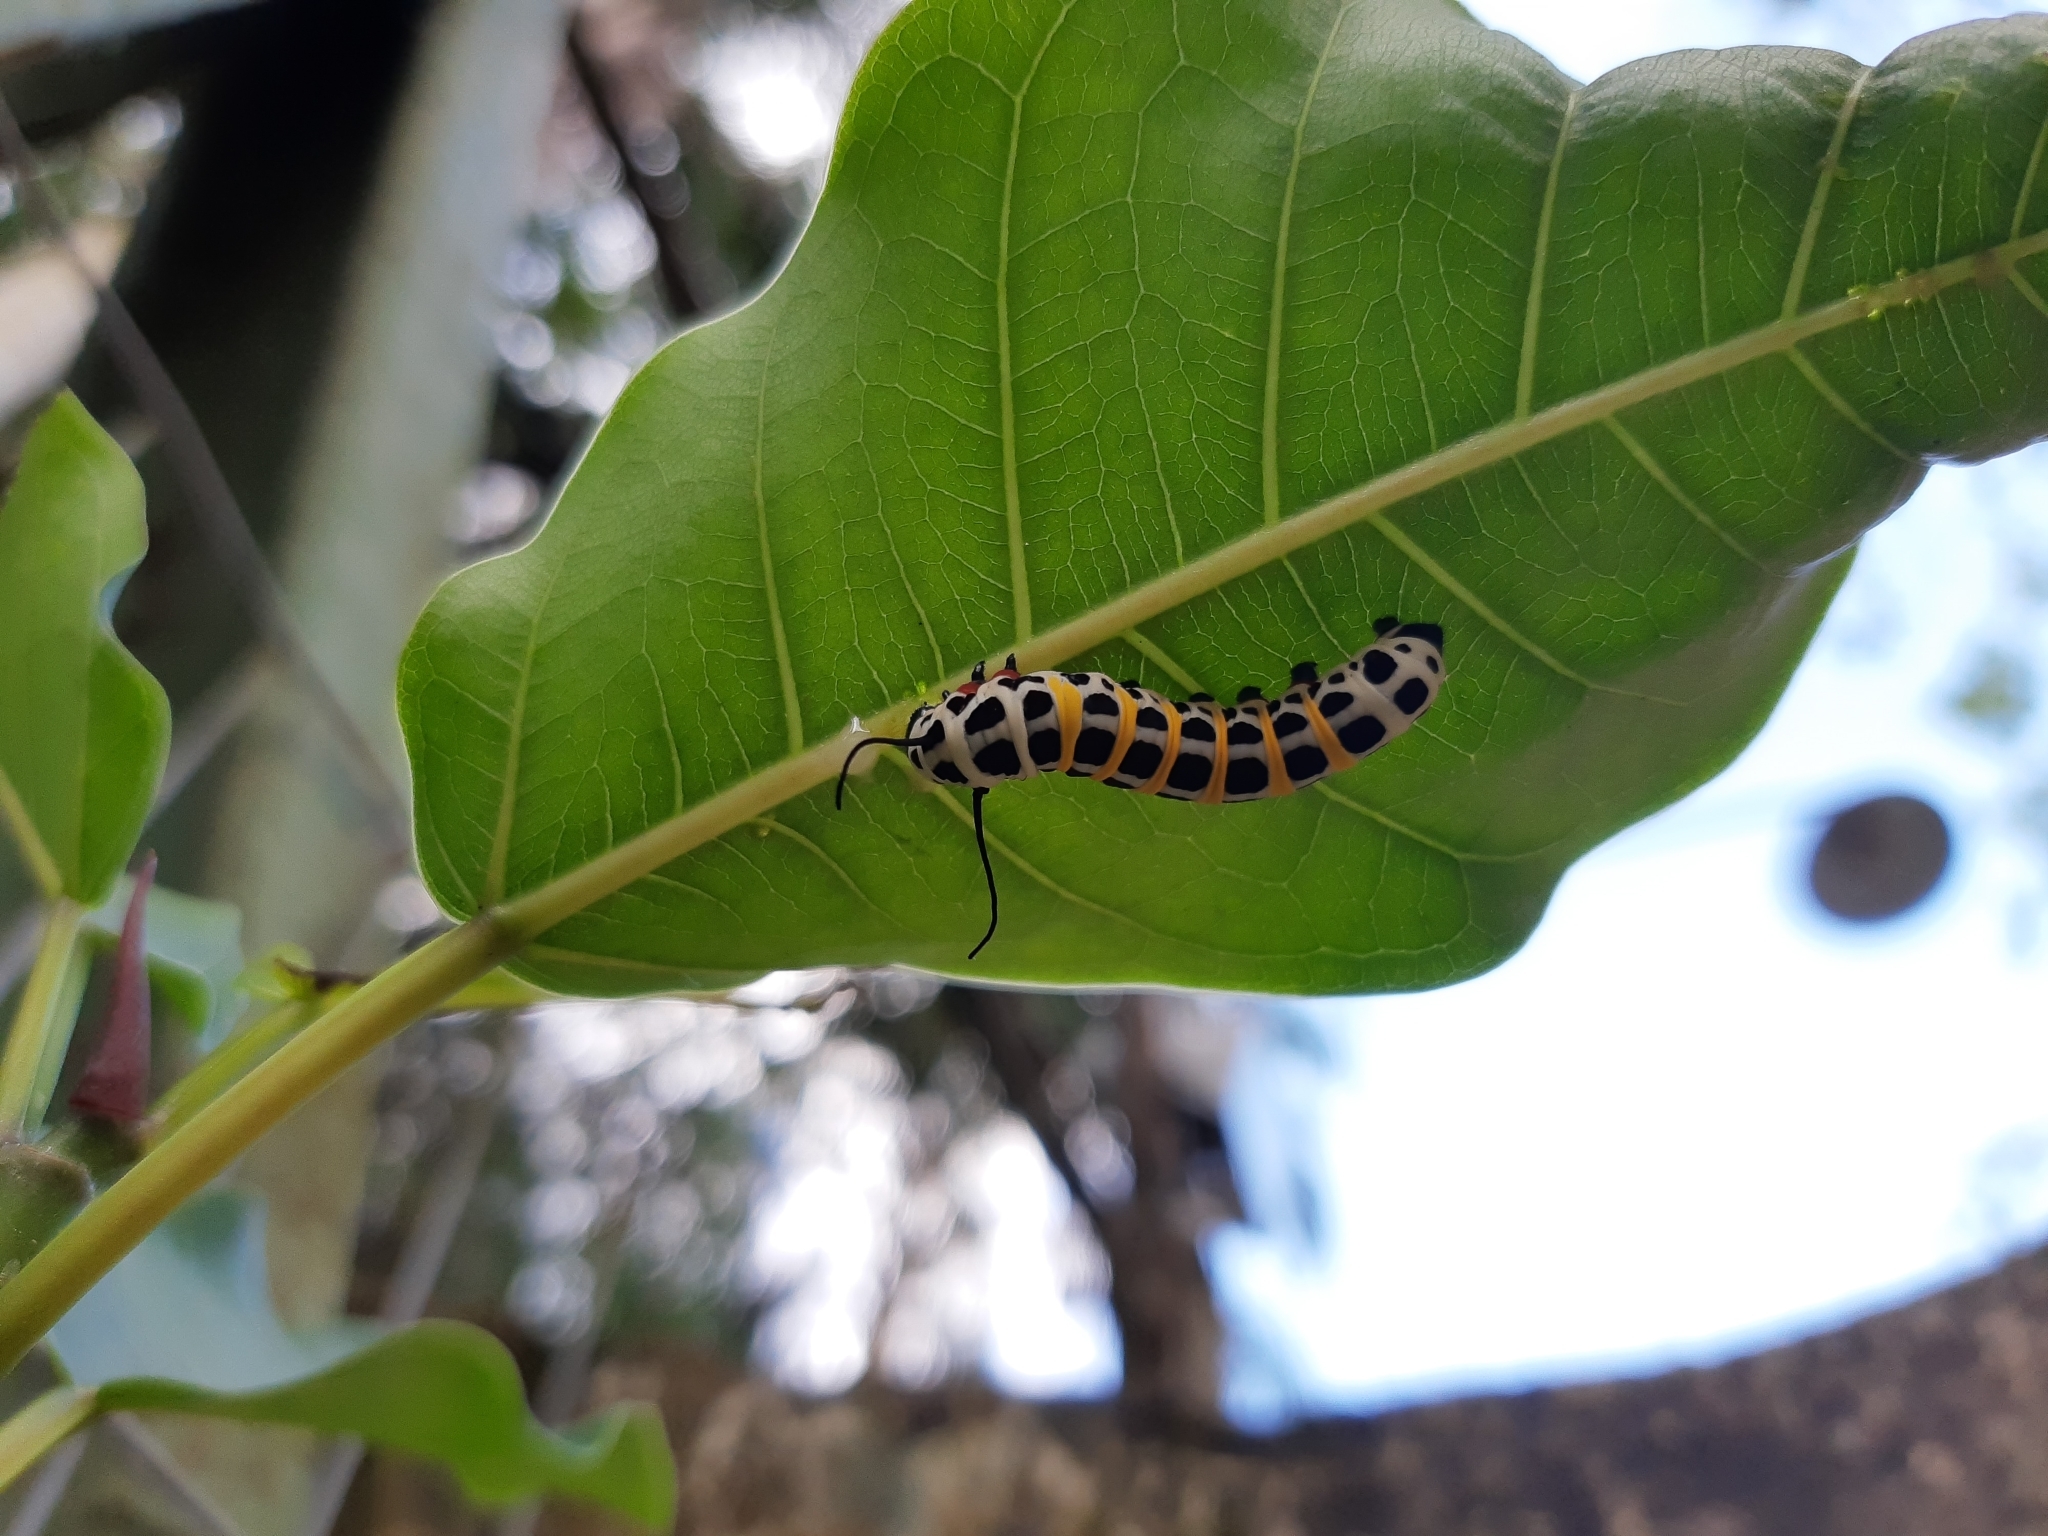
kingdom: Animalia
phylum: Arthropoda
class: Insecta
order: Lepidoptera
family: Nymphalidae
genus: Lycorea
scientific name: Lycorea ilione
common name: Clearwing mimic-queen
